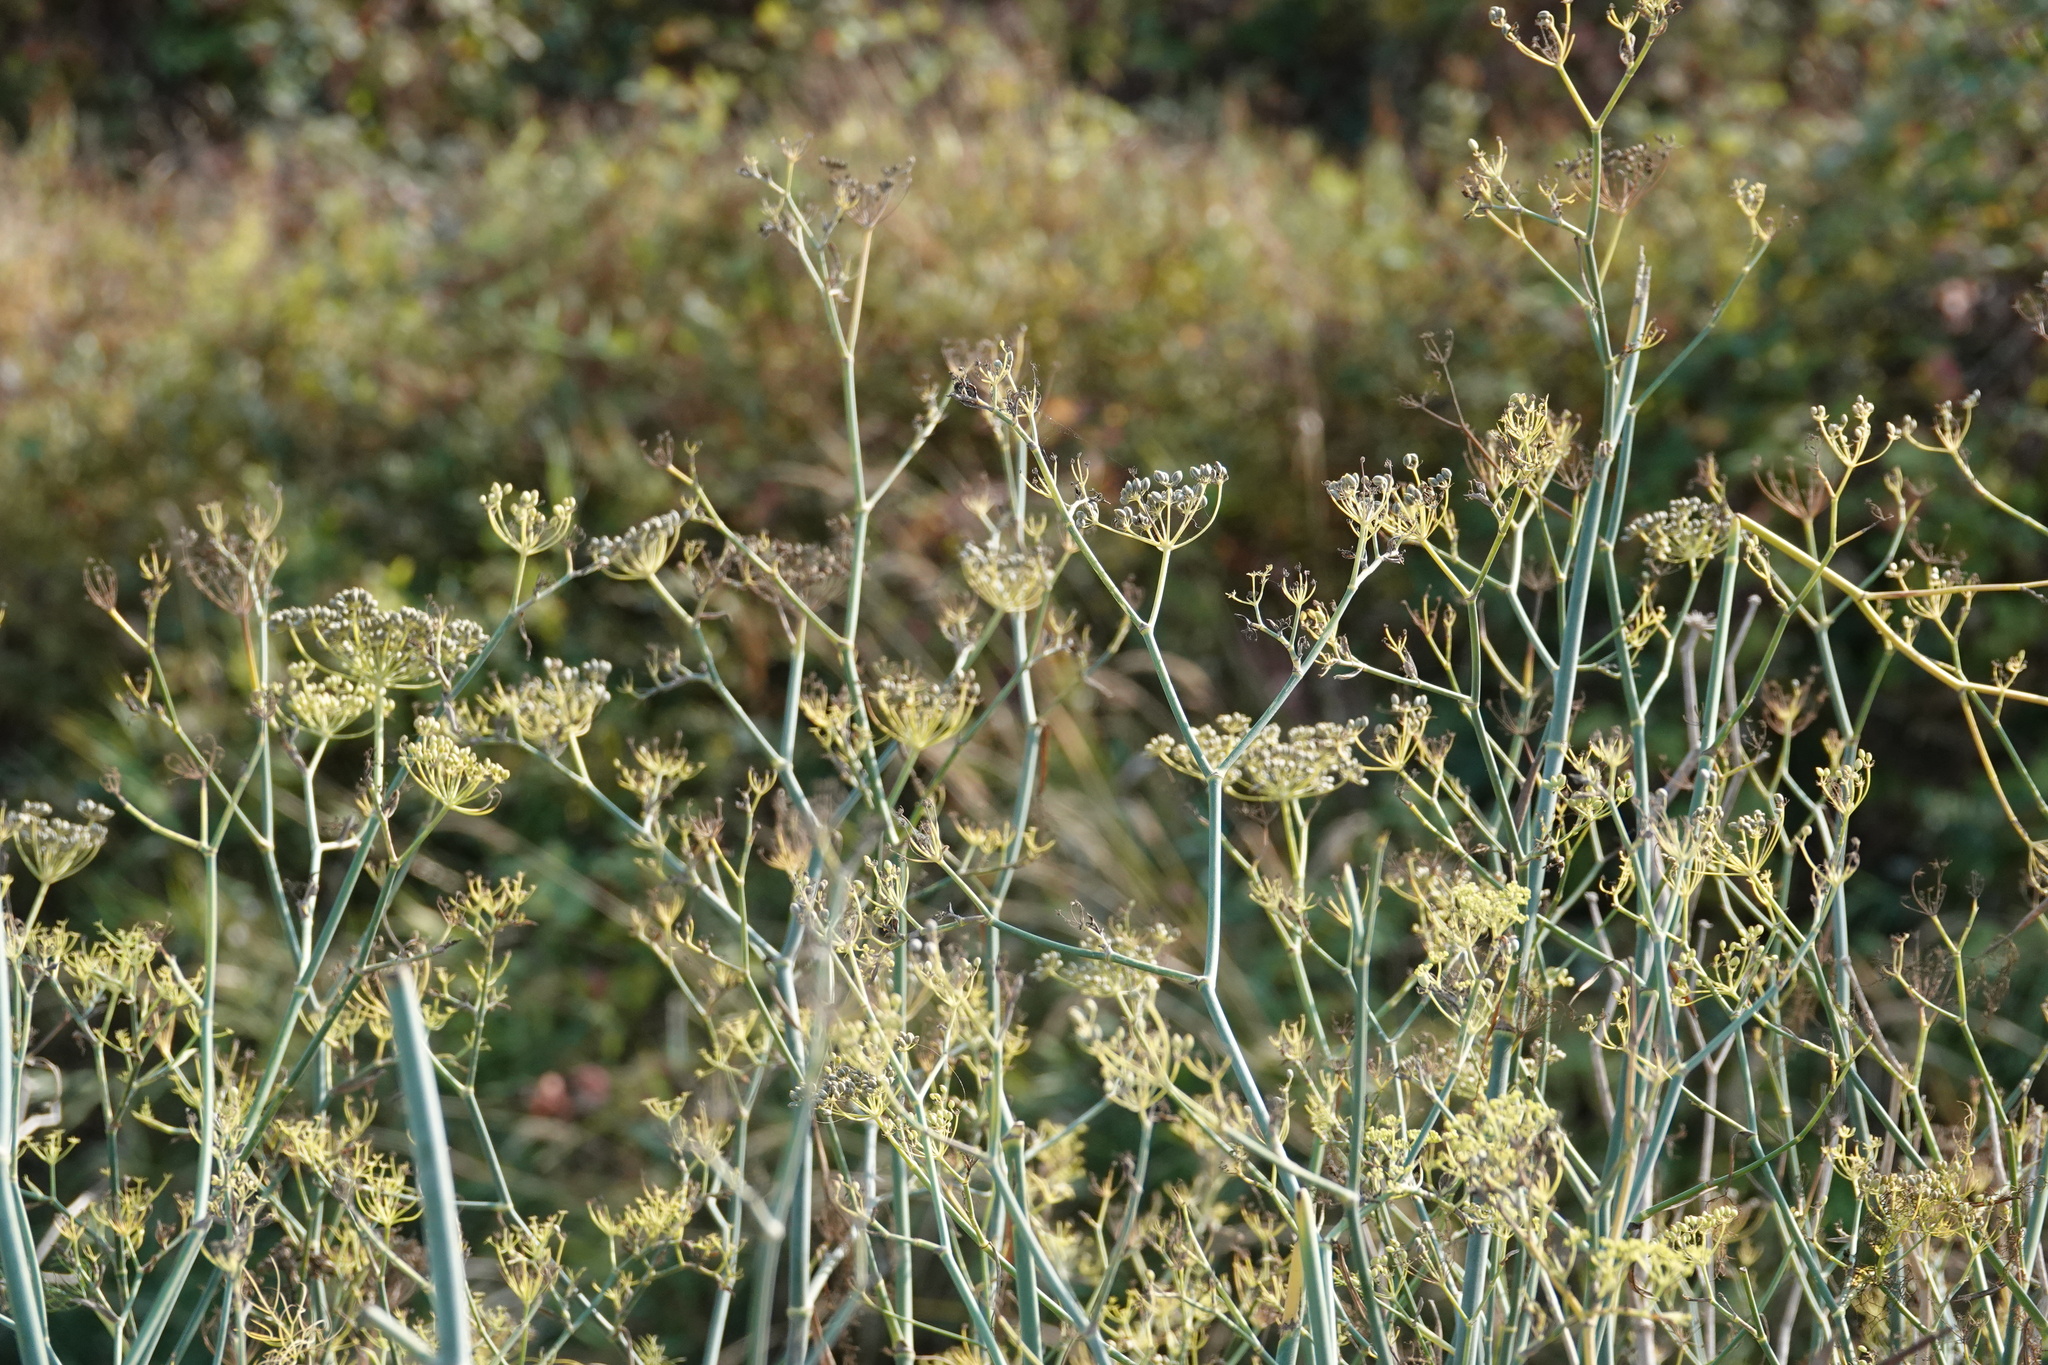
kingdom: Plantae
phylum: Tracheophyta
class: Magnoliopsida
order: Apiales
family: Apiaceae
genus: Foeniculum
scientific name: Foeniculum vulgare
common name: Fennel
